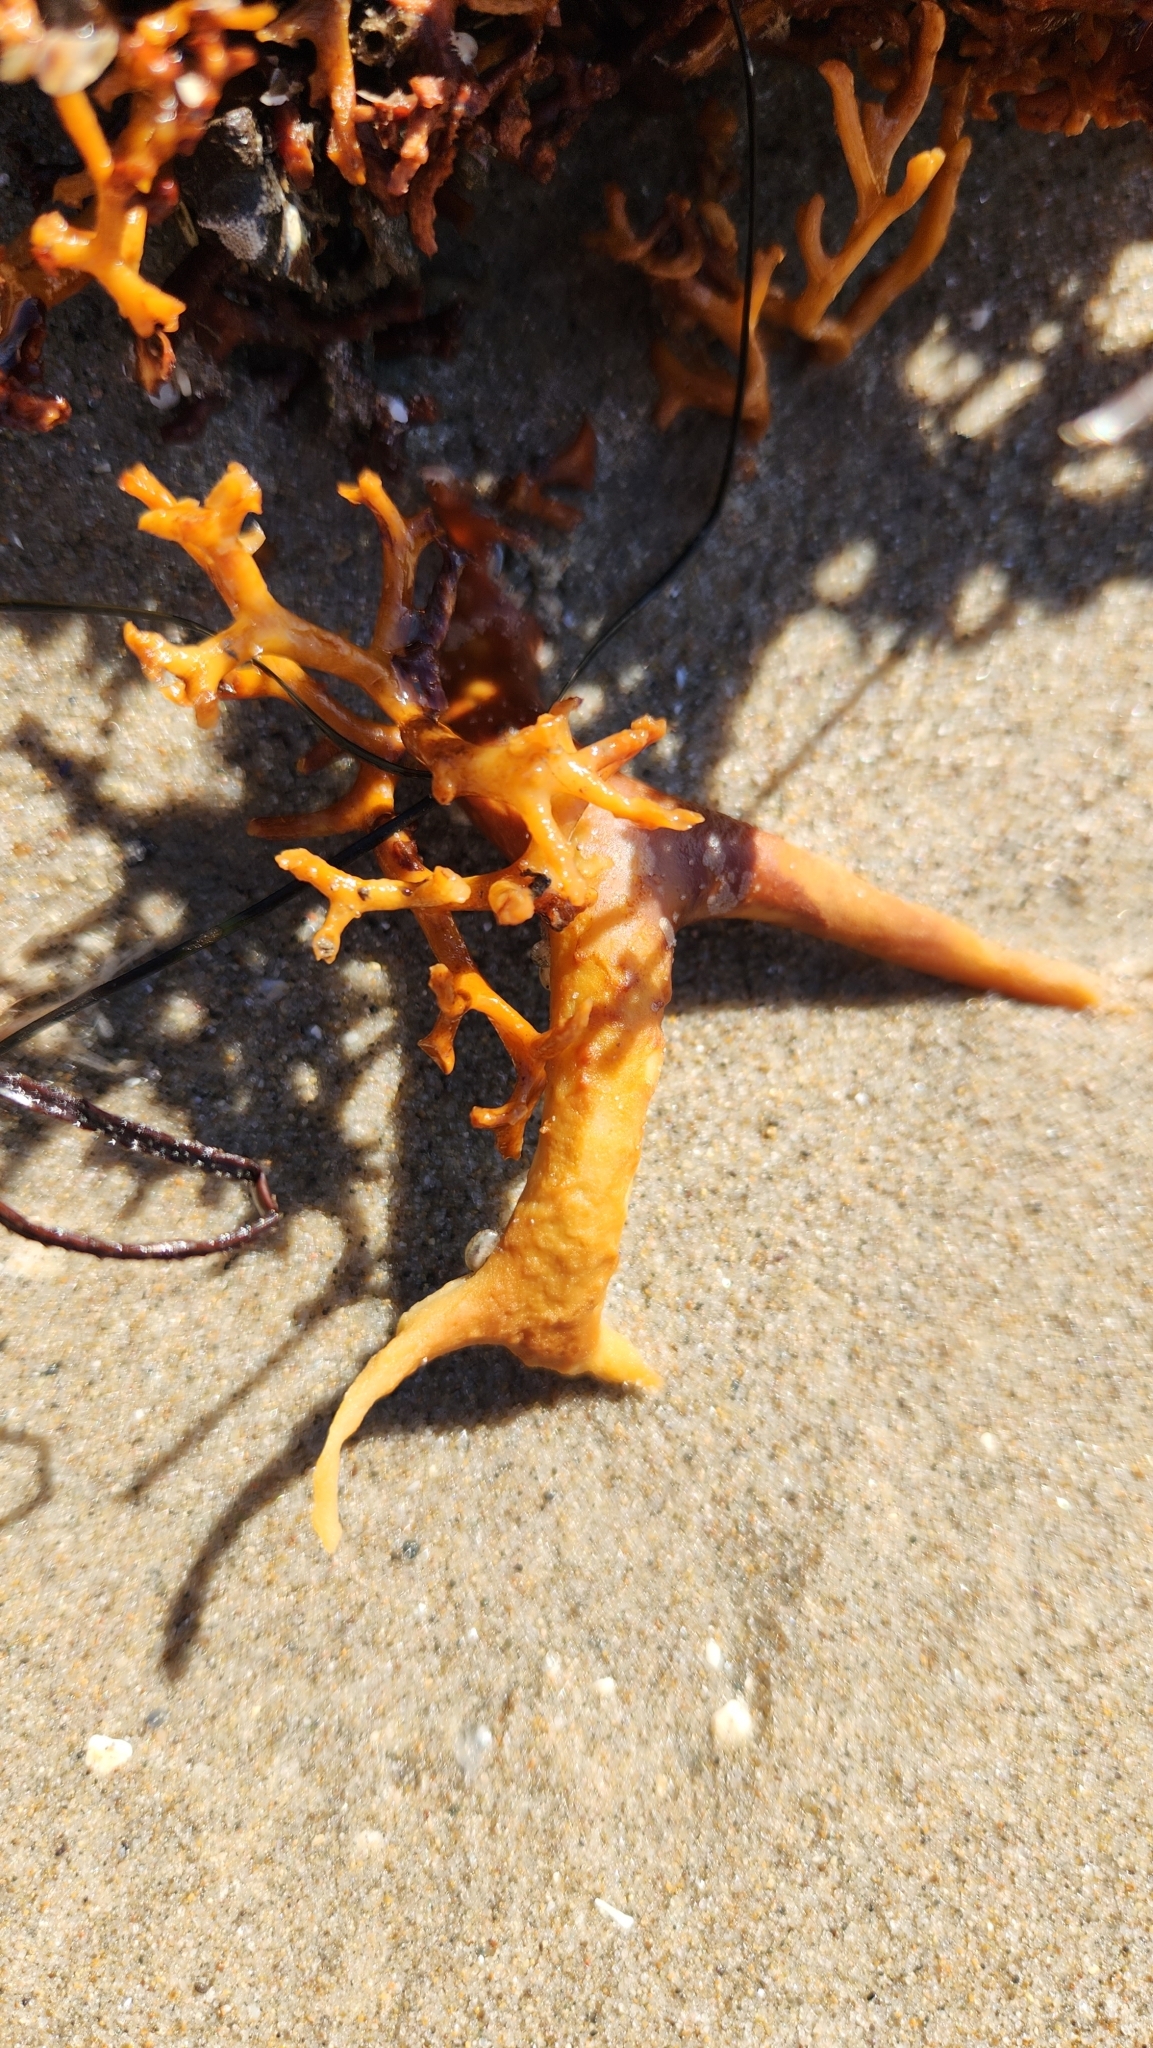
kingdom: Chromista
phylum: Ochrophyta
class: Phaeophyceae
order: Laminariales
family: Laminariaceae
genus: Macrocystis
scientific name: Macrocystis pyrifera
